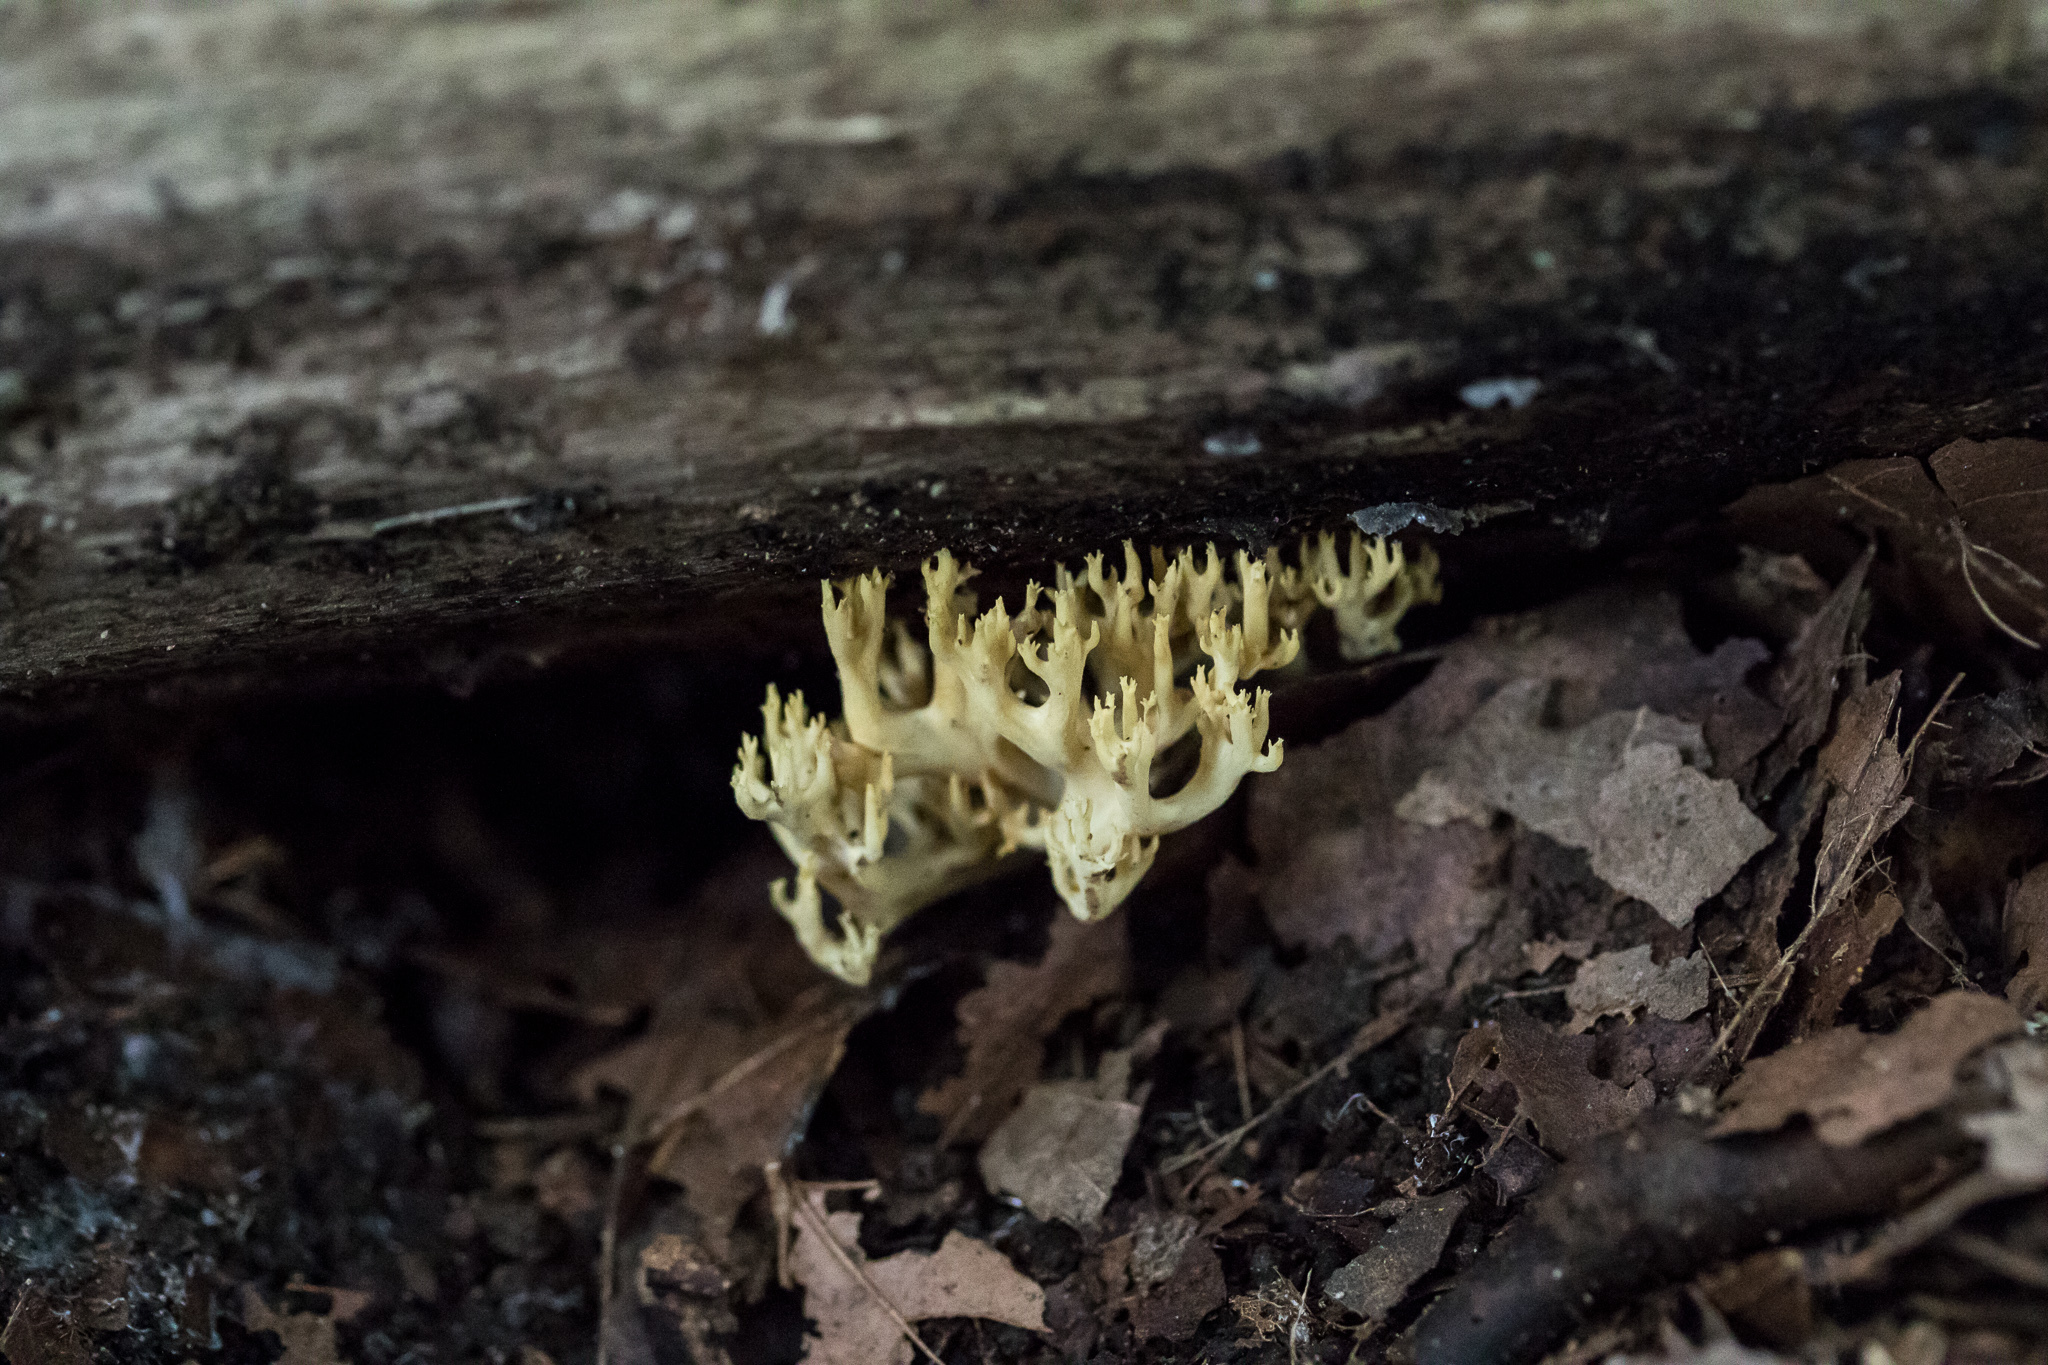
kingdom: Fungi
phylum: Basidiomycota
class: Agaricomycetes
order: Russulales
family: Auriscalpiaceae
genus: Artomyces
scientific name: Artomyces pyxidatus
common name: Crown-tipped coral fungus
